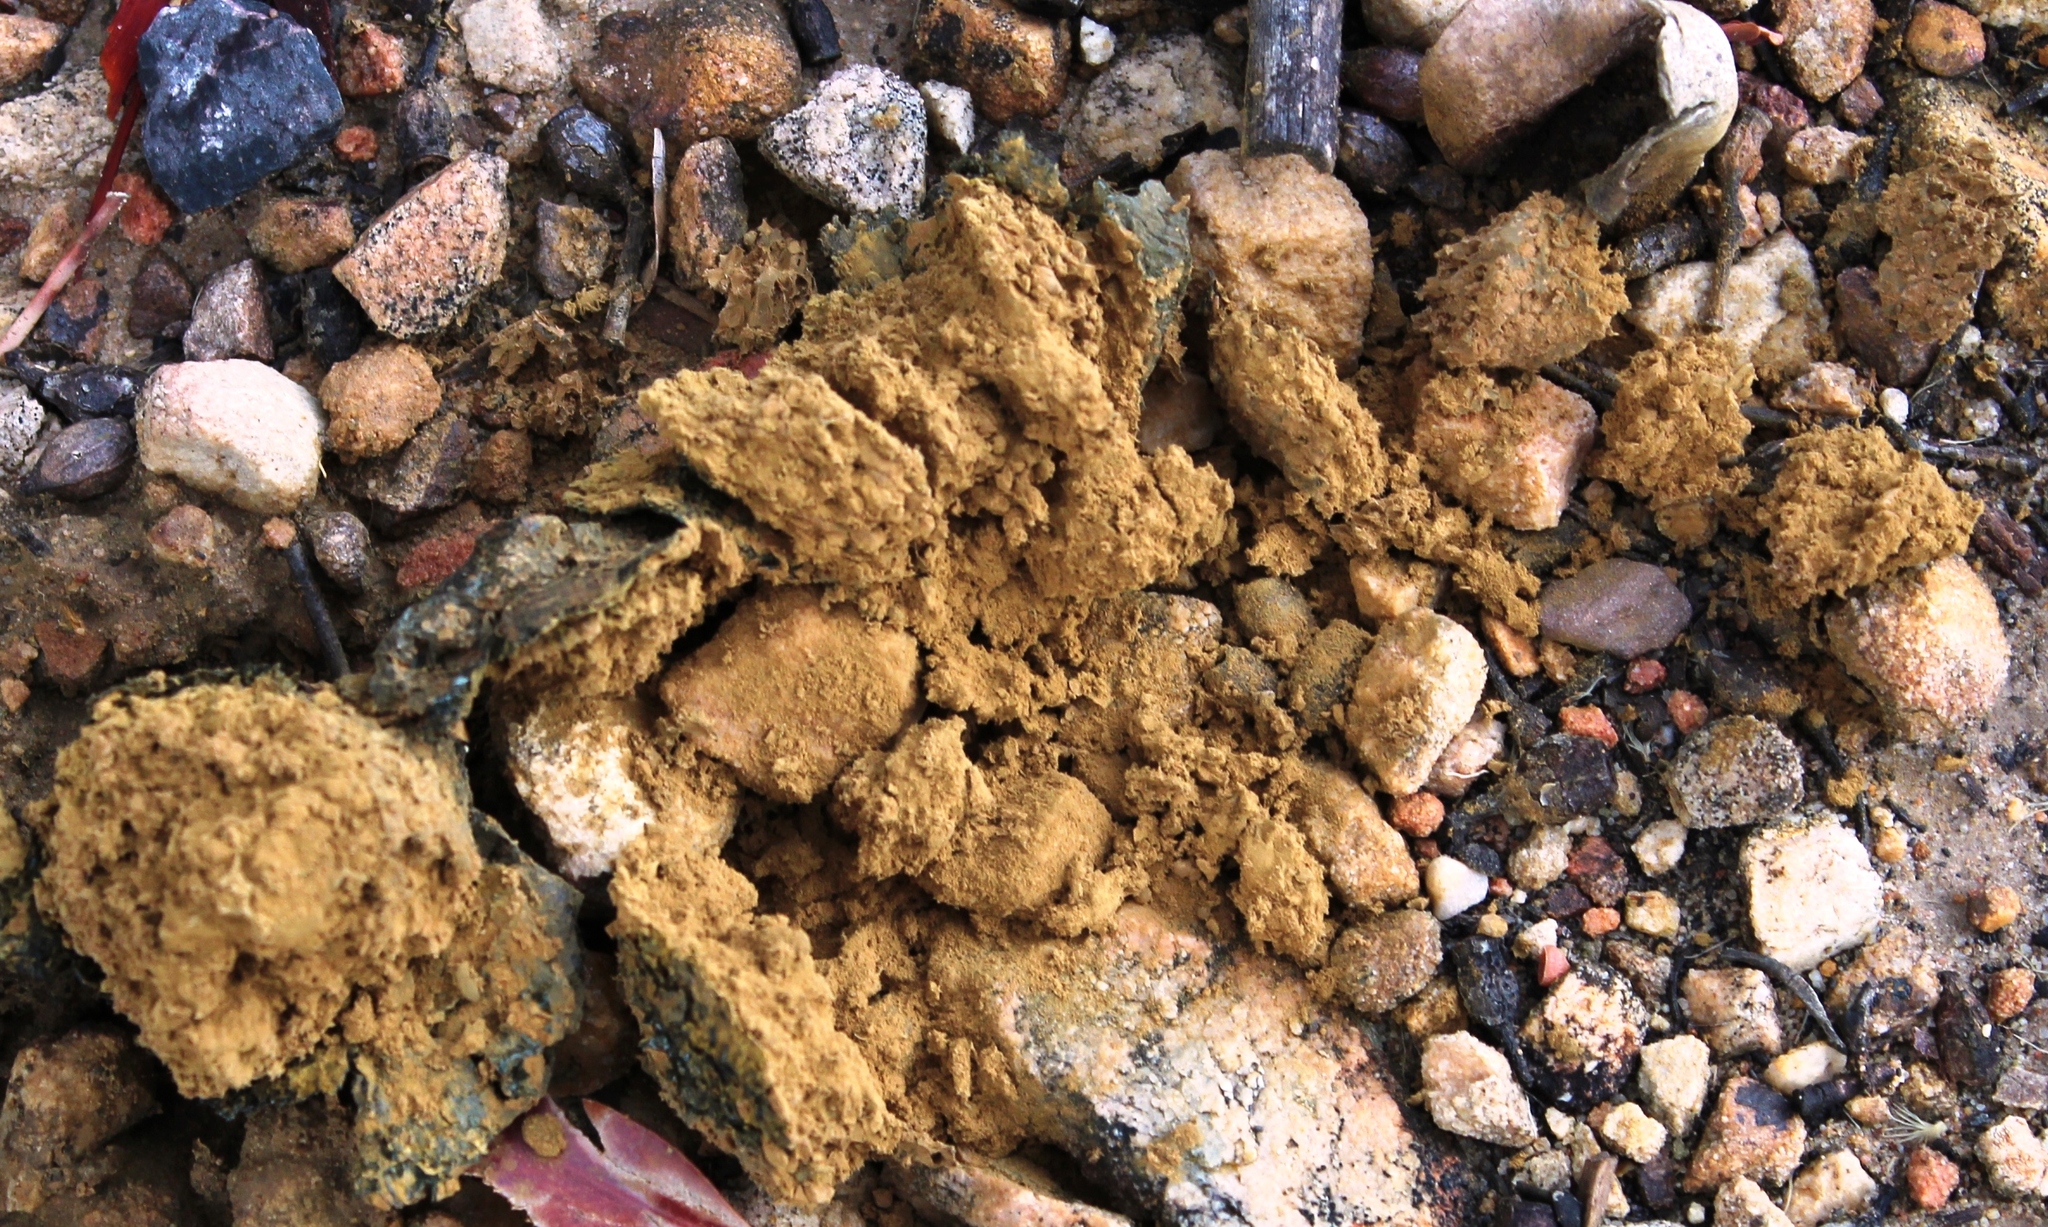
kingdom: Fungi
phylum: Basidiomycota
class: Agaricomycetes
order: Boletales
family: Sclerodermataceae
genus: Pisolithus
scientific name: Pisolithus arhizus
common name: Dyeball
